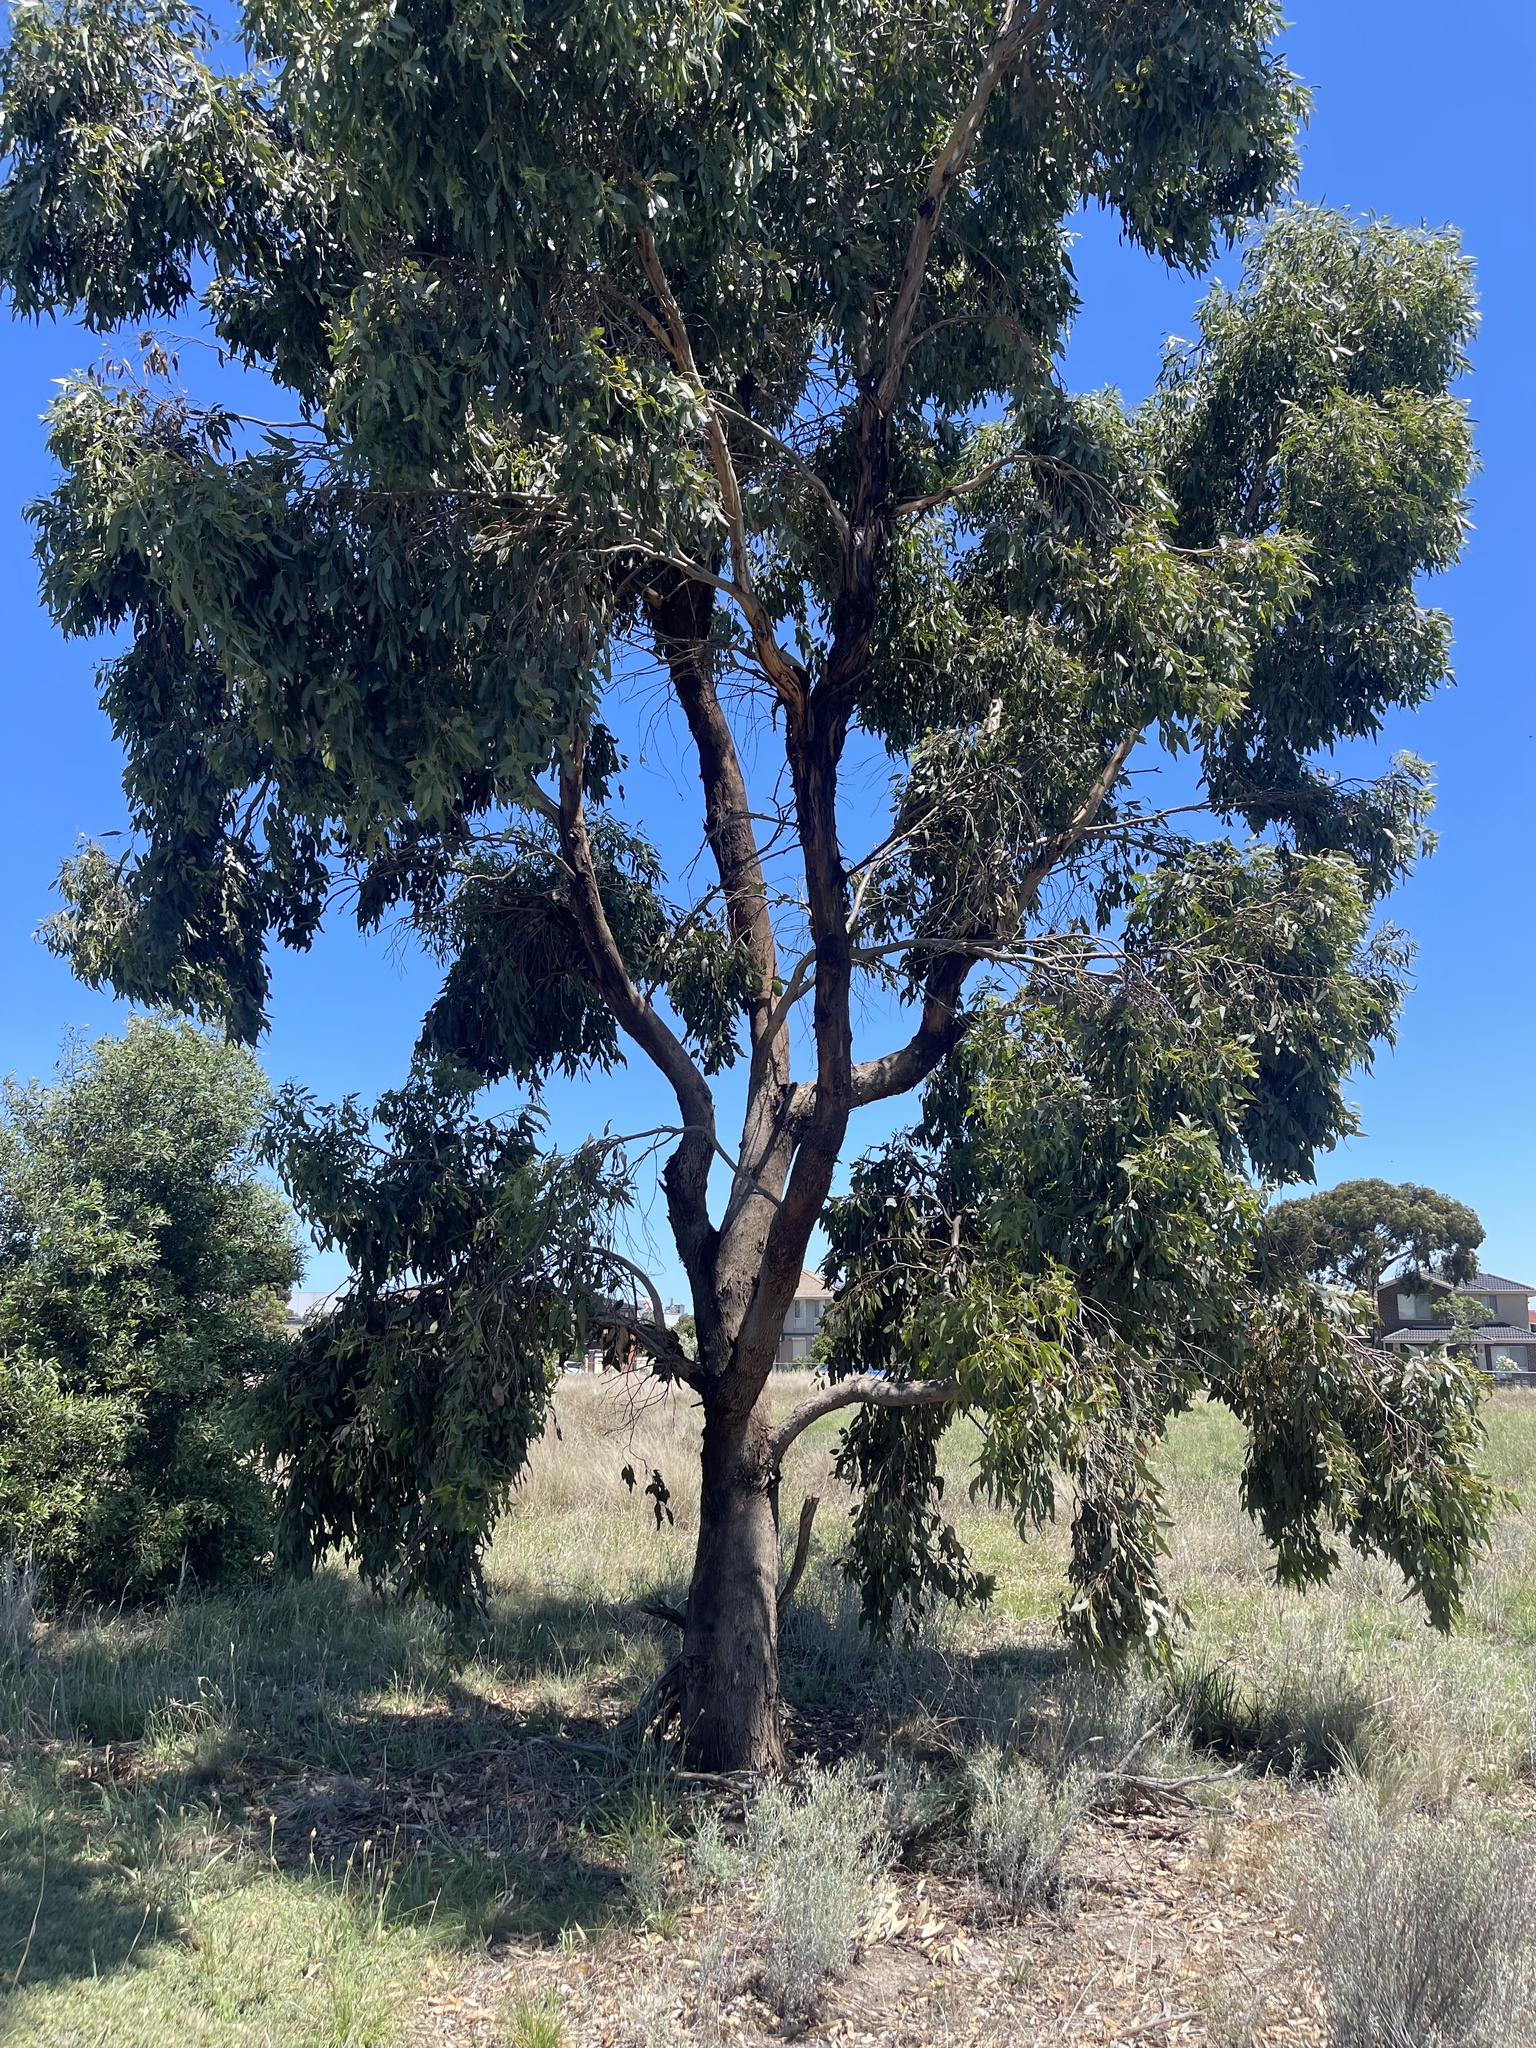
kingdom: Plantae
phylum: Tracheophyta
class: Magnoliopsida
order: Myrtales
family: Myrtaceae
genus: Eucalyptus
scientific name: Eucalyptus microcarpa
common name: Grey-box
